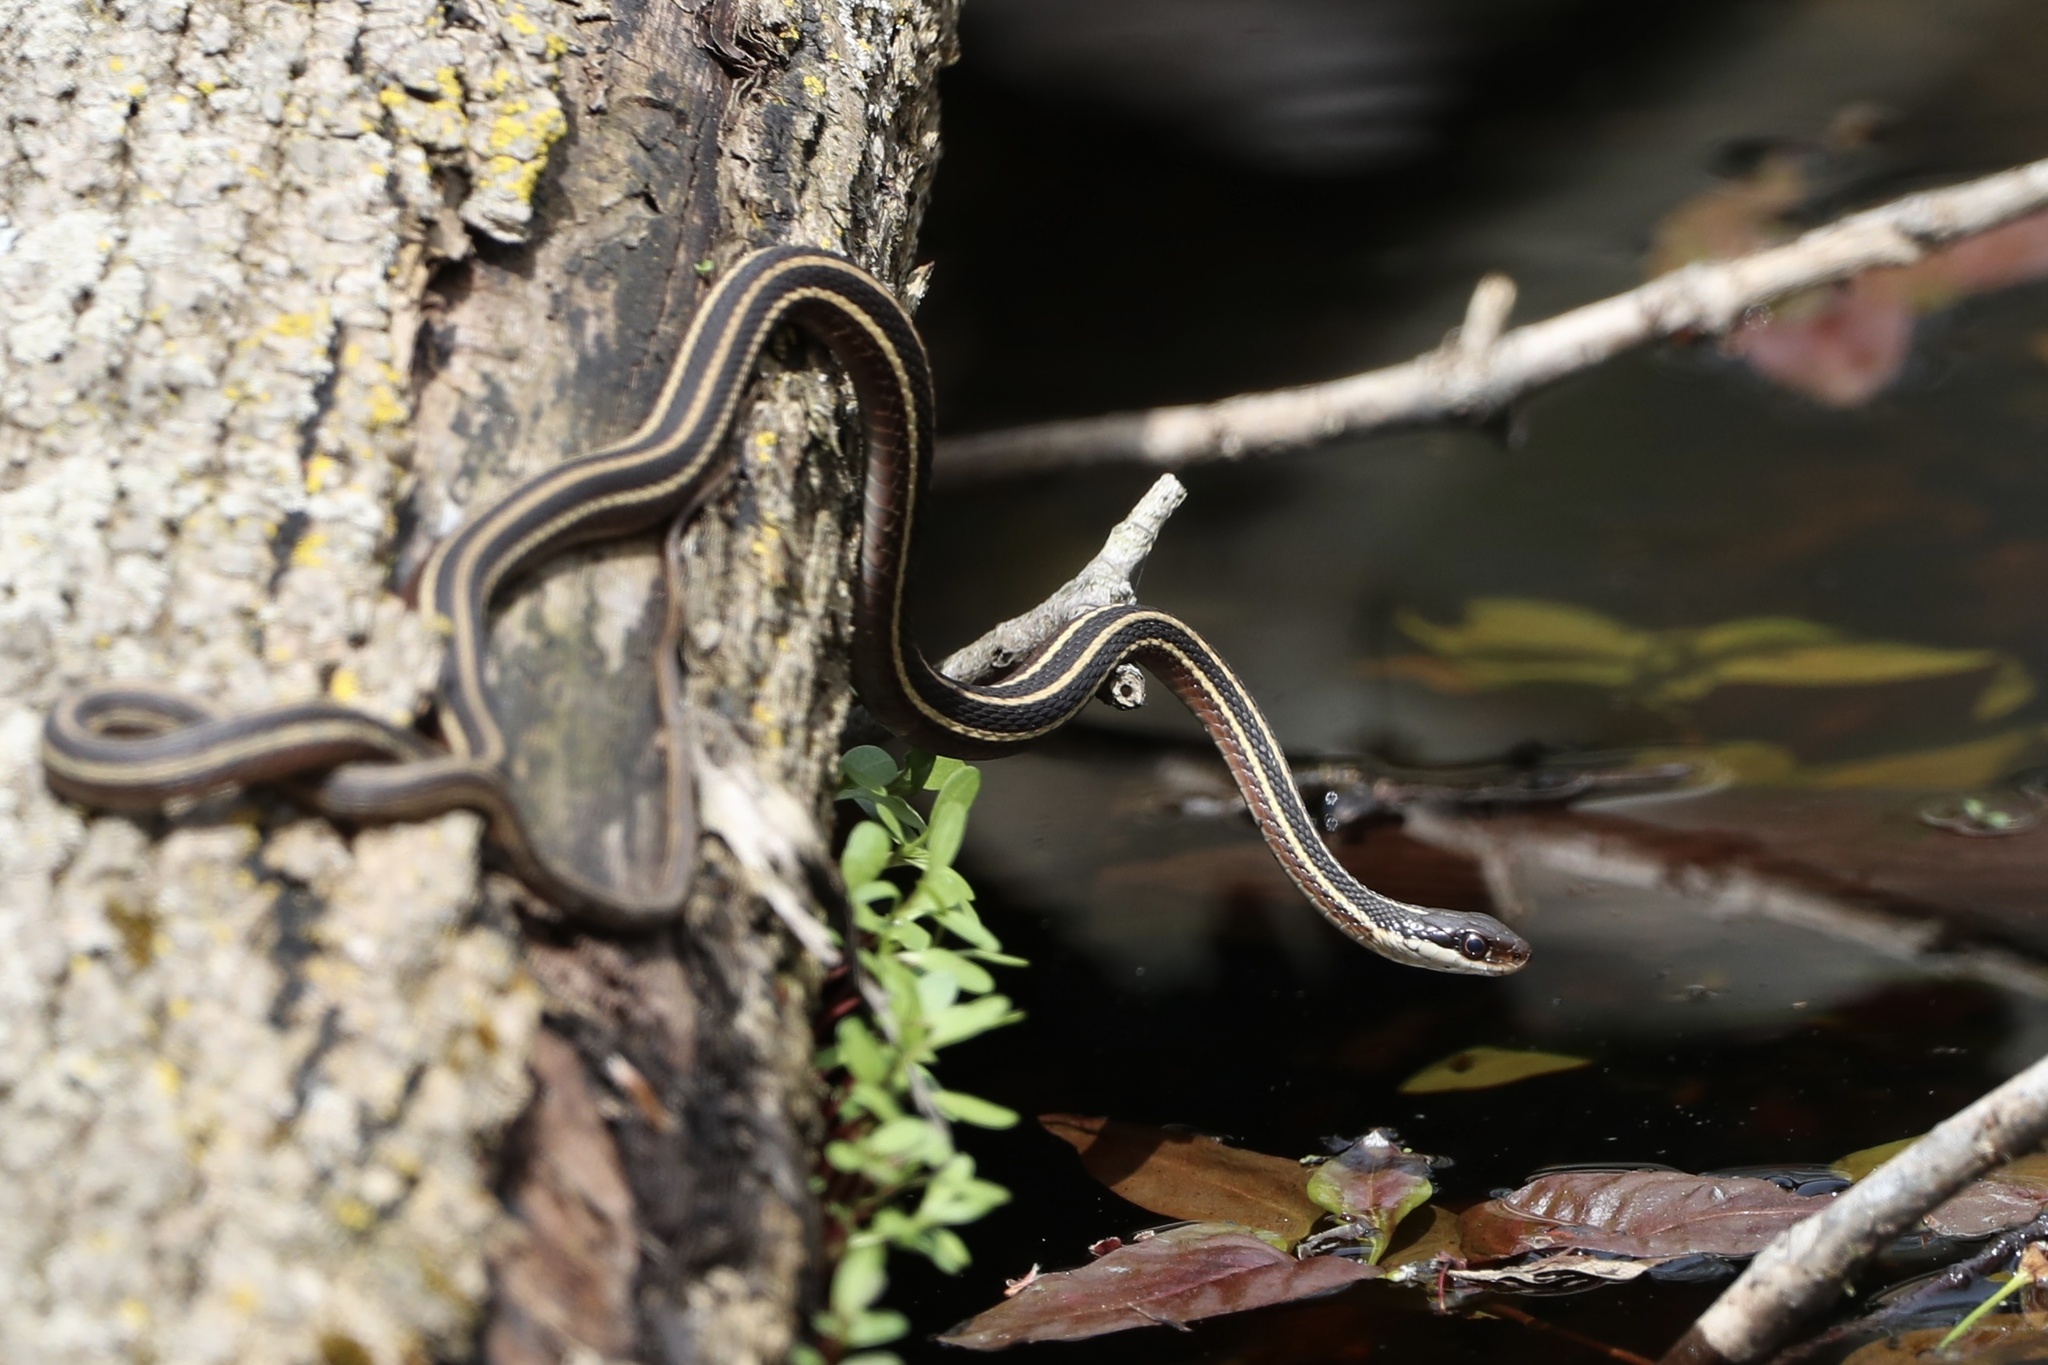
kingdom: Animalia
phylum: Chordata
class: Squamata
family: Colubridae
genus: Thamnophis
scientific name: Thamnophis saurita
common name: Eastern ribbonsnake
